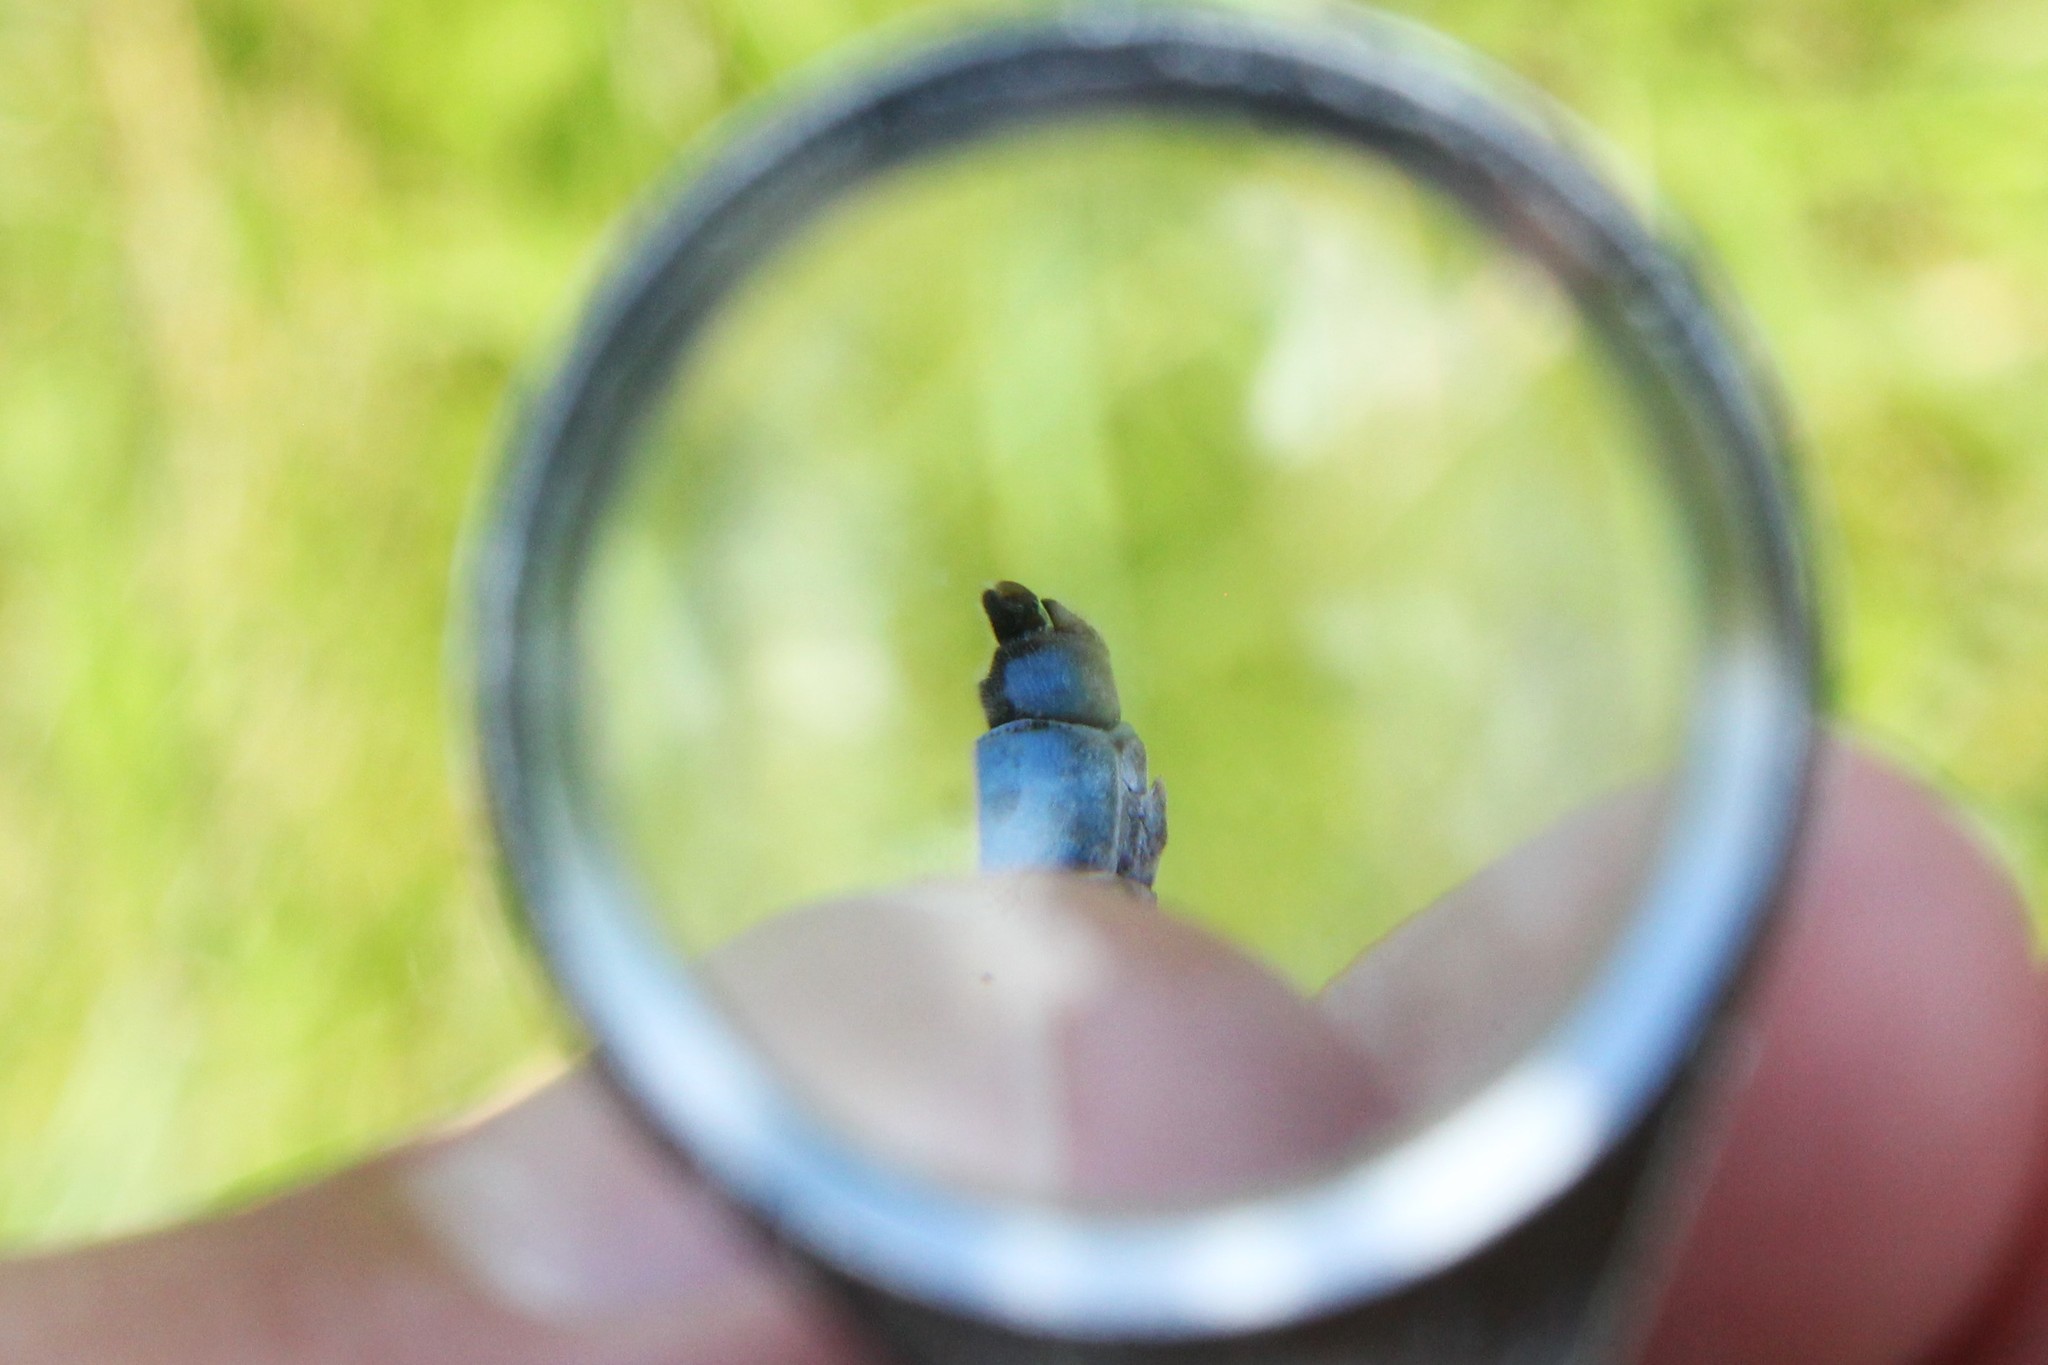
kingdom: Animalia
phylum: Arthropoda
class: Insecta
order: Odonata
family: Coenagrionidae
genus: Enallagma
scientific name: Enallagma civile
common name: Damselfly
